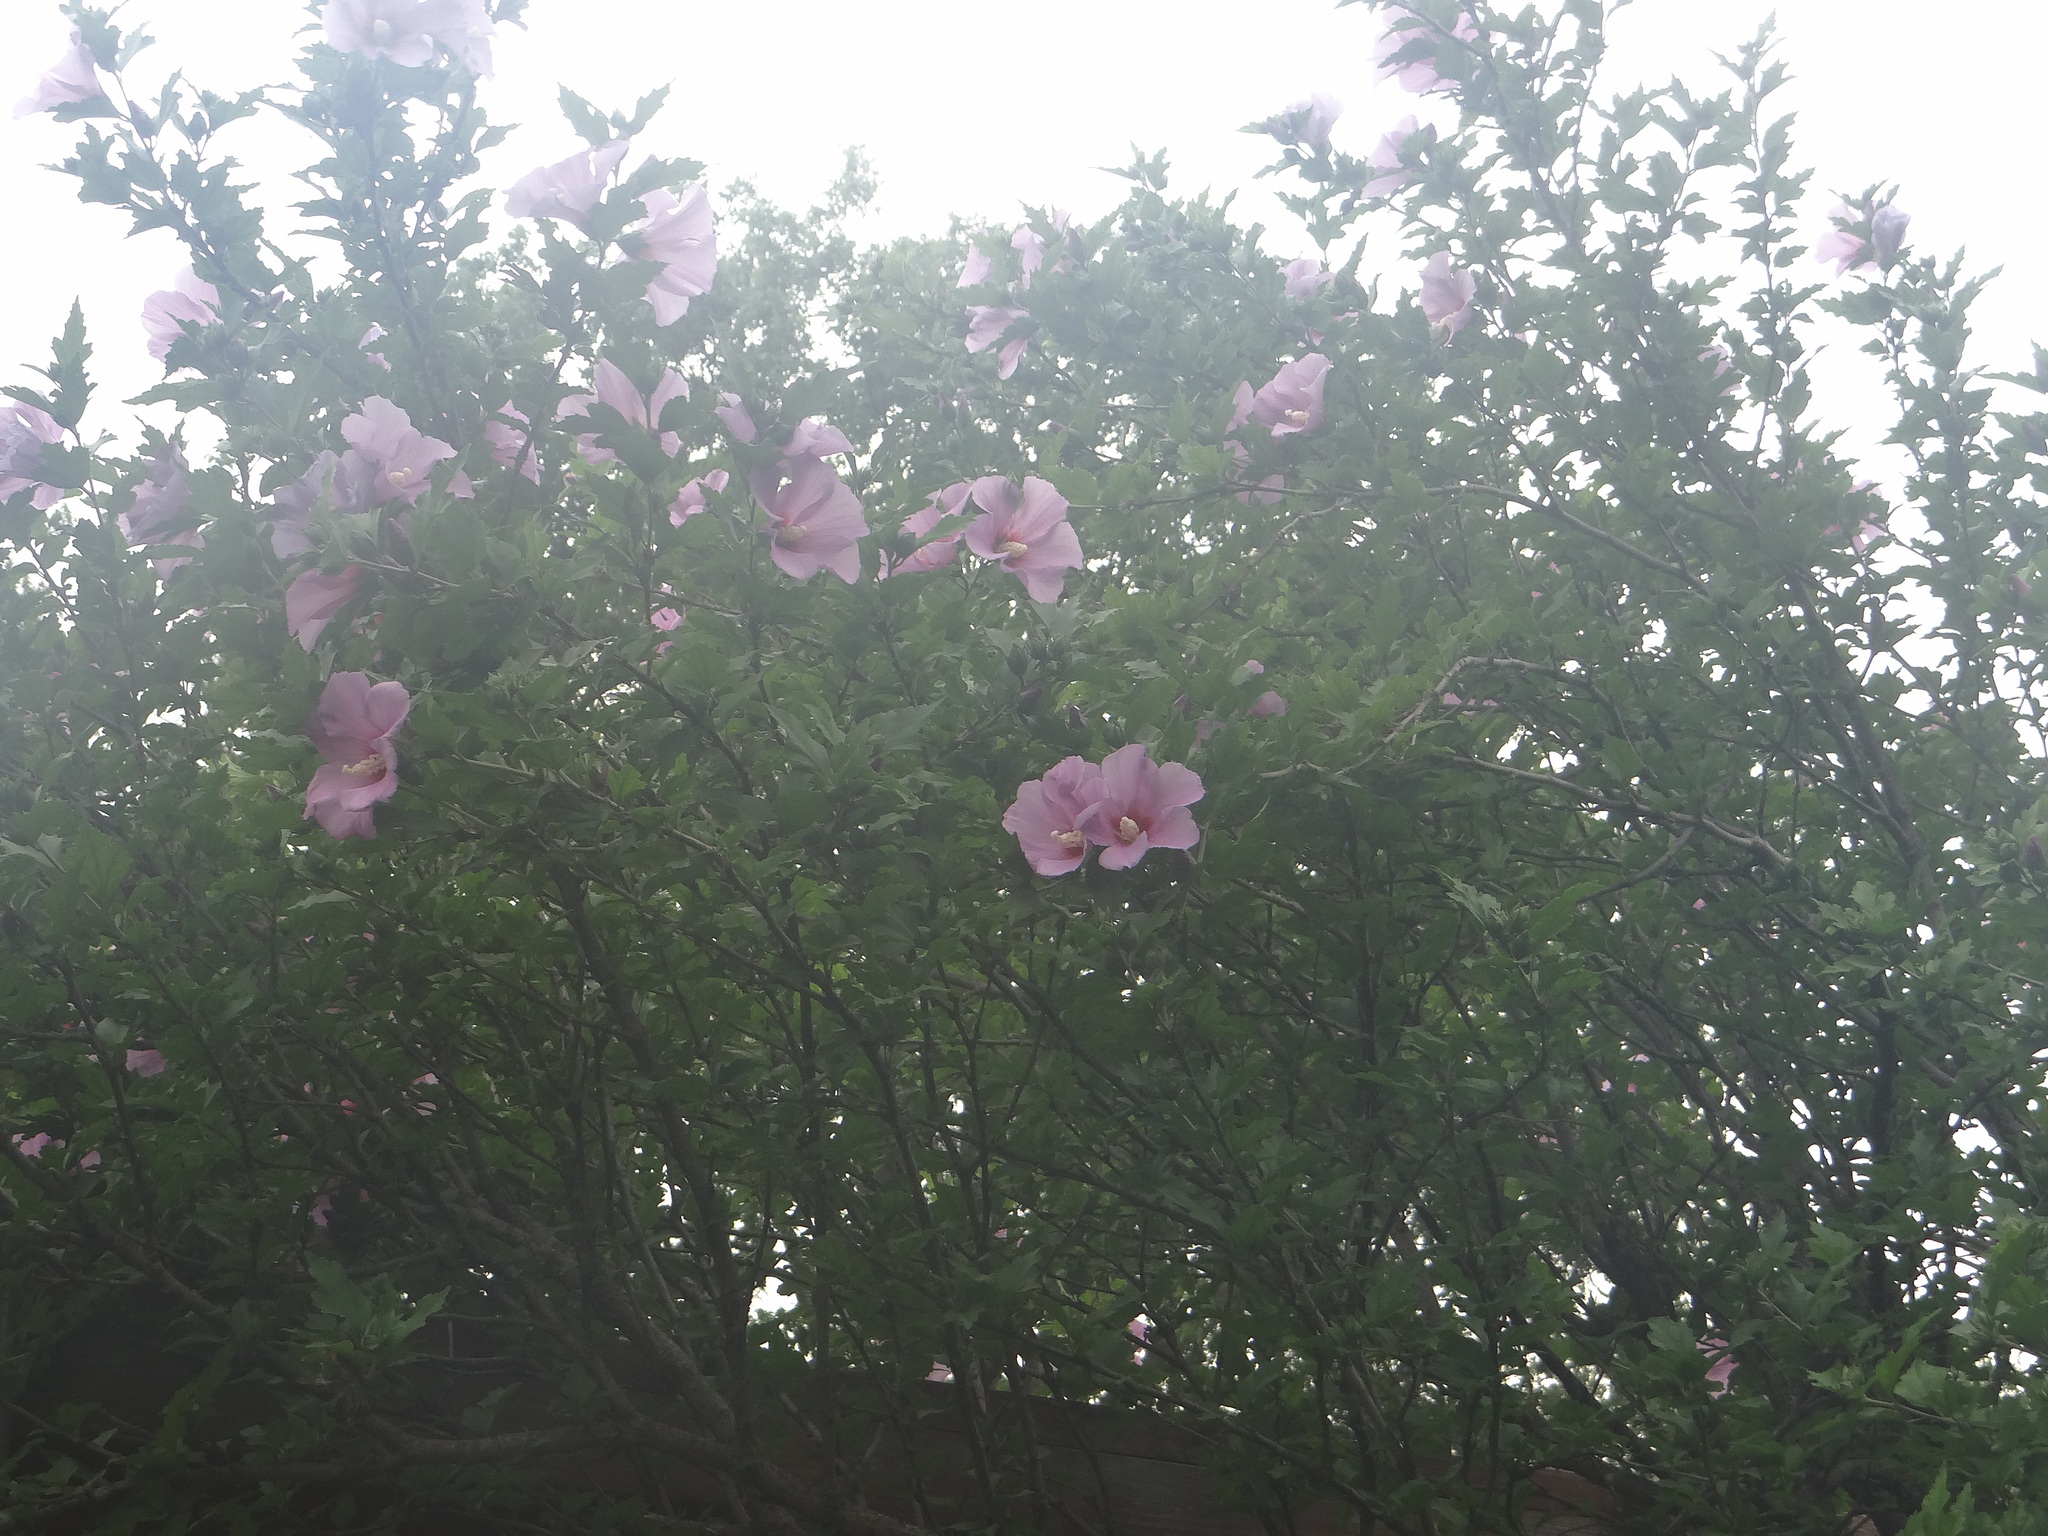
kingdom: Plantae
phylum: Tracheophyta
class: Magnoliopsida
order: Malvales
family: Malvaceae
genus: Hibiscus
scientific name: Hibiscus syriacus
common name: Syrian ketmia
